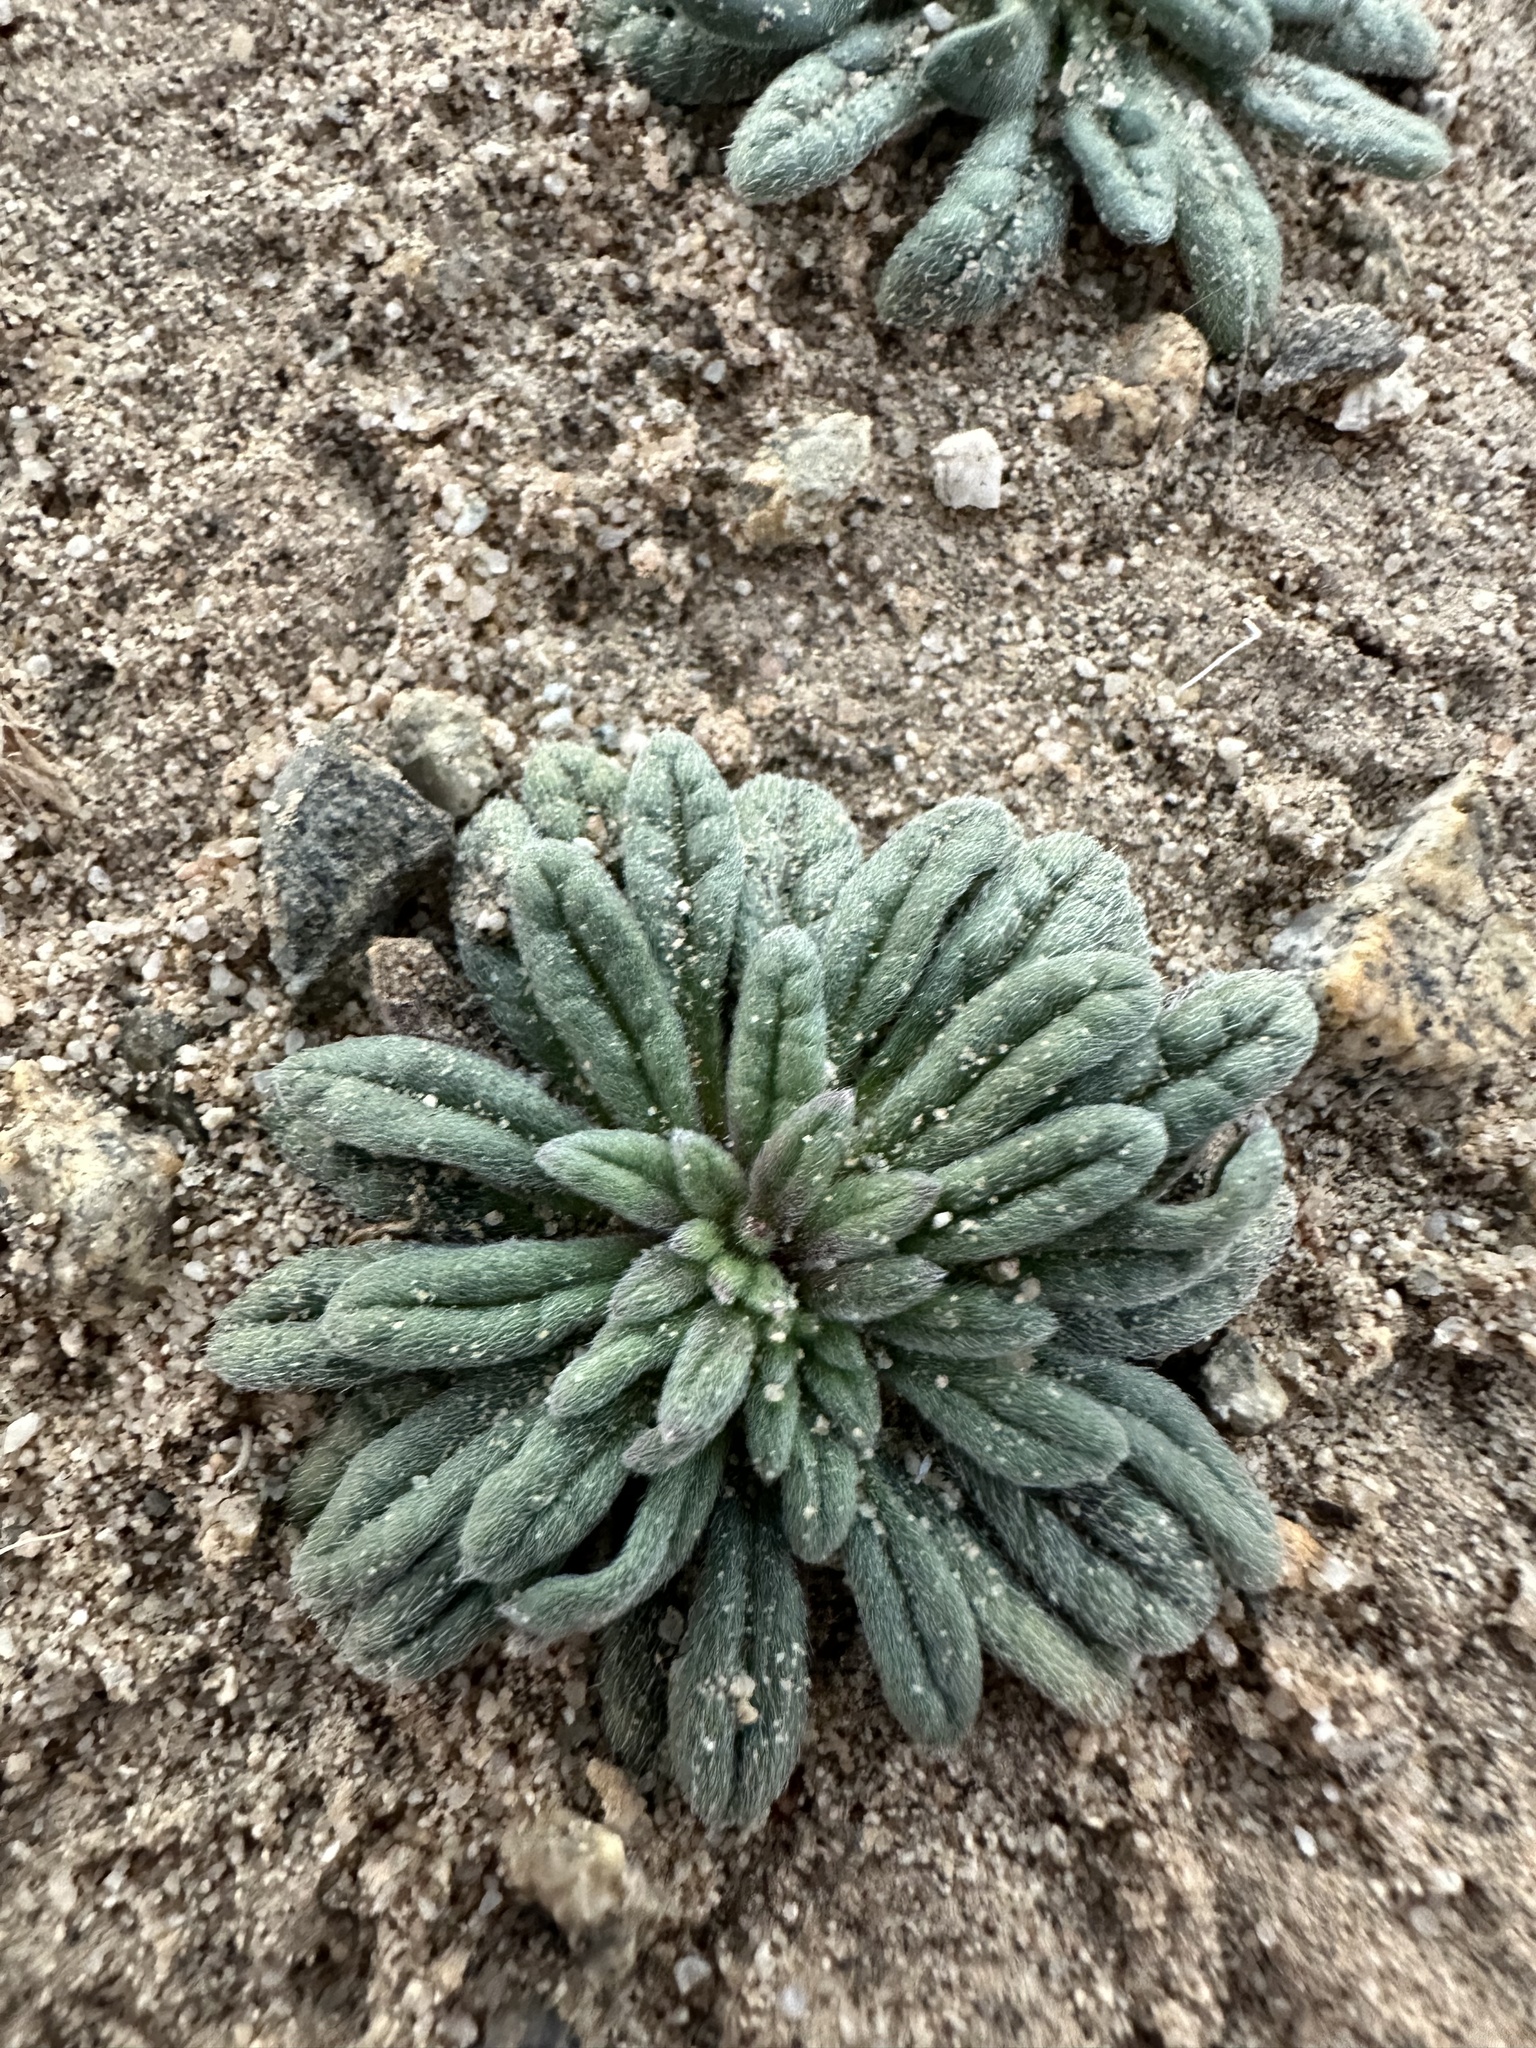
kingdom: Plantae
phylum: Tracheophyta
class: Magnoliopsida
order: Boraginales
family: Namaceae
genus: Nama
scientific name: Nama hispida
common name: Bristly nama
